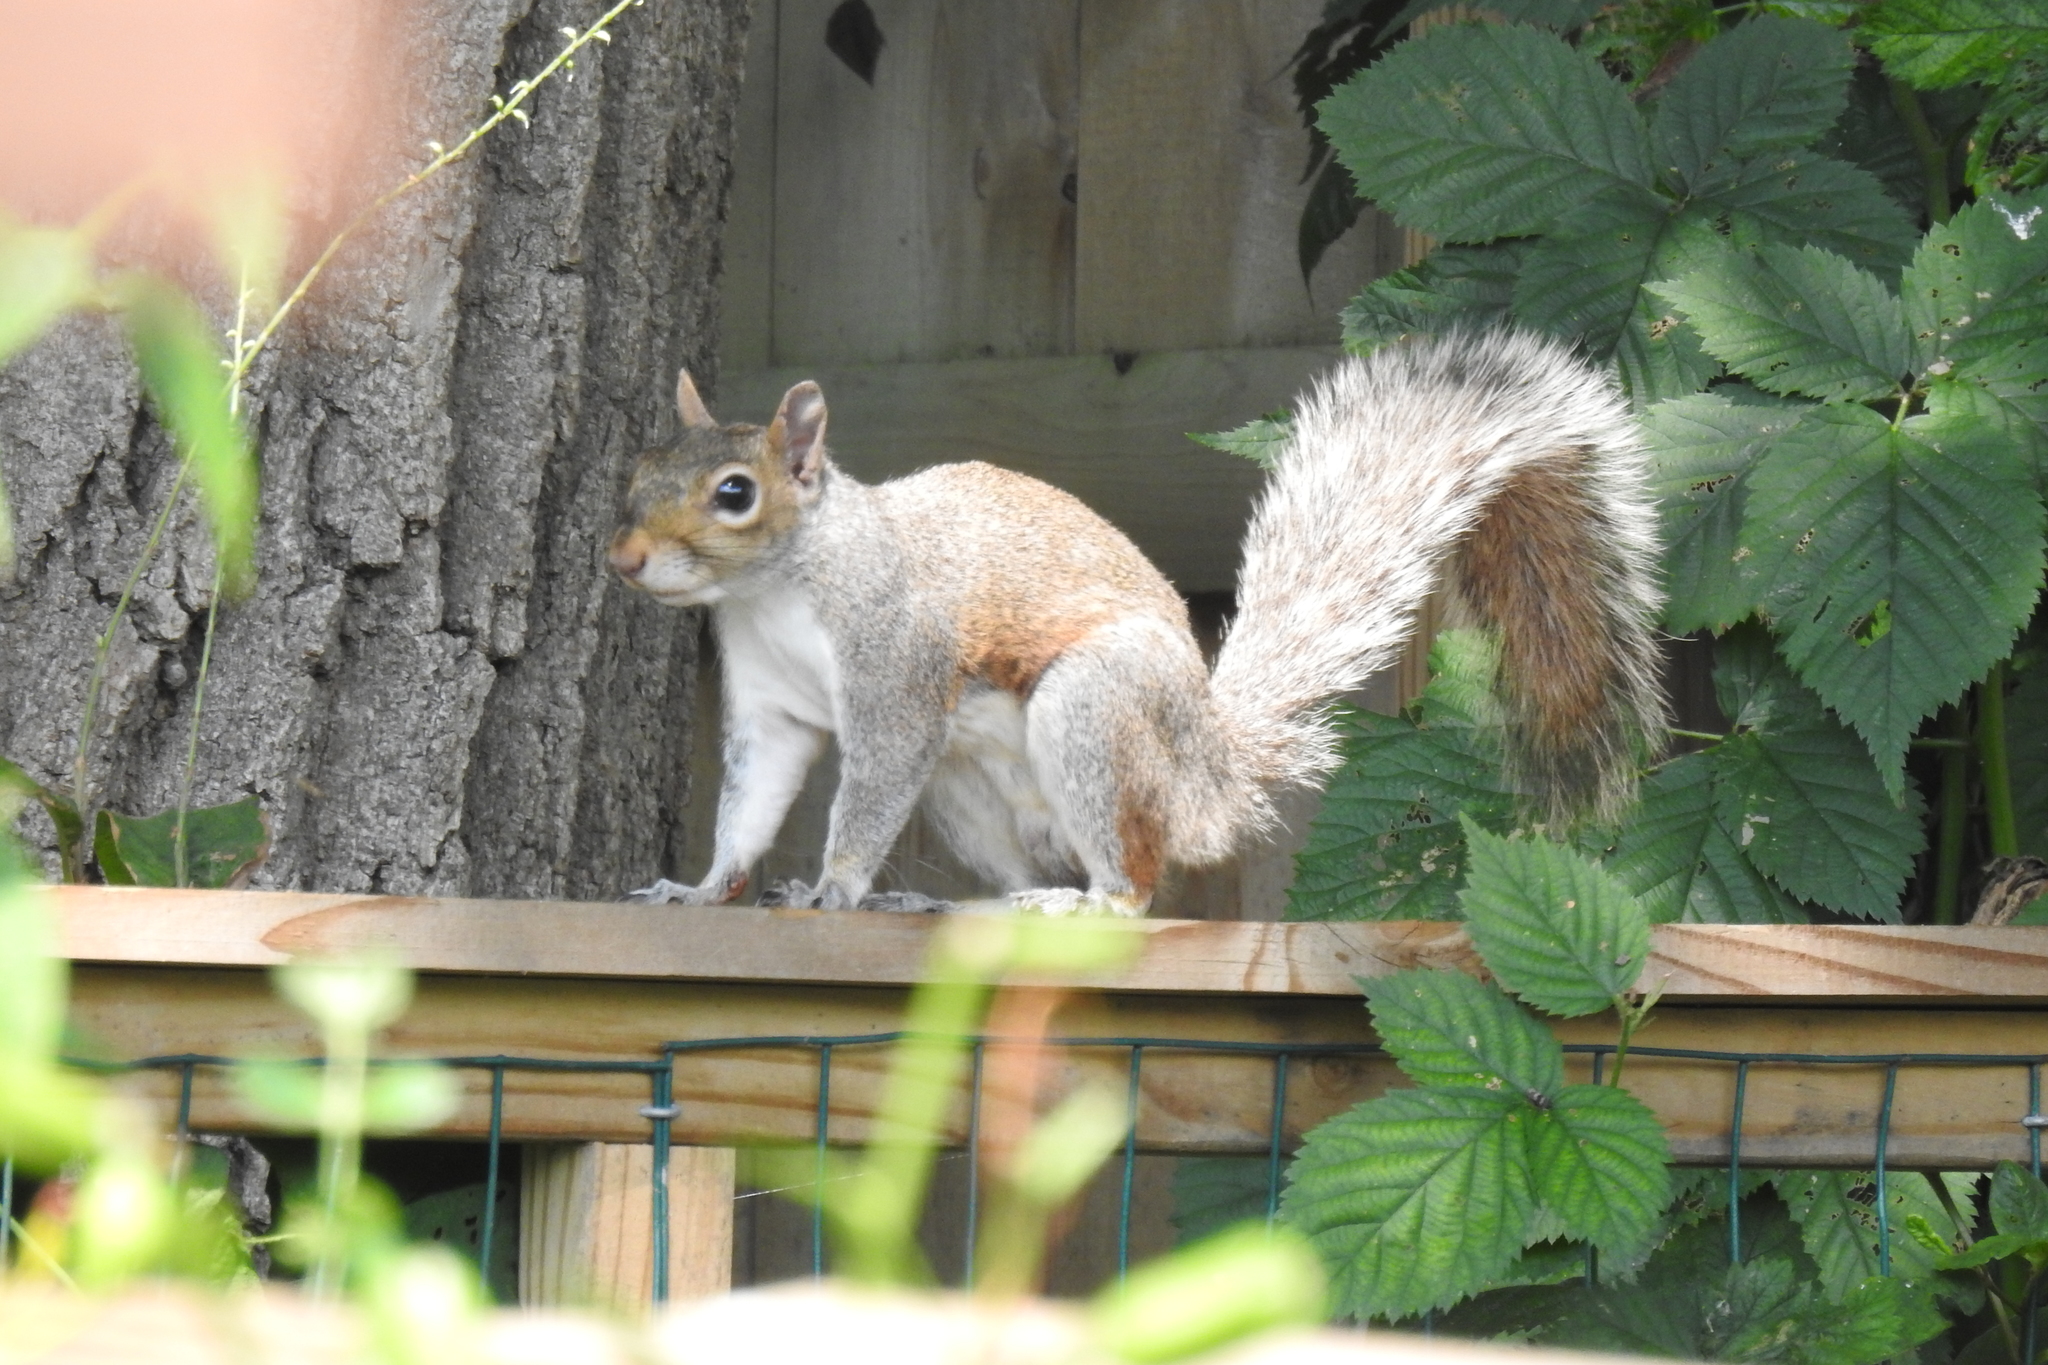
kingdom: Animalia
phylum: Chordata
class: Mammalia
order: Rodentia
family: Sciuridae
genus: Sciurus
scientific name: Sciurus carolinensis
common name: Eastern gray squirrel
